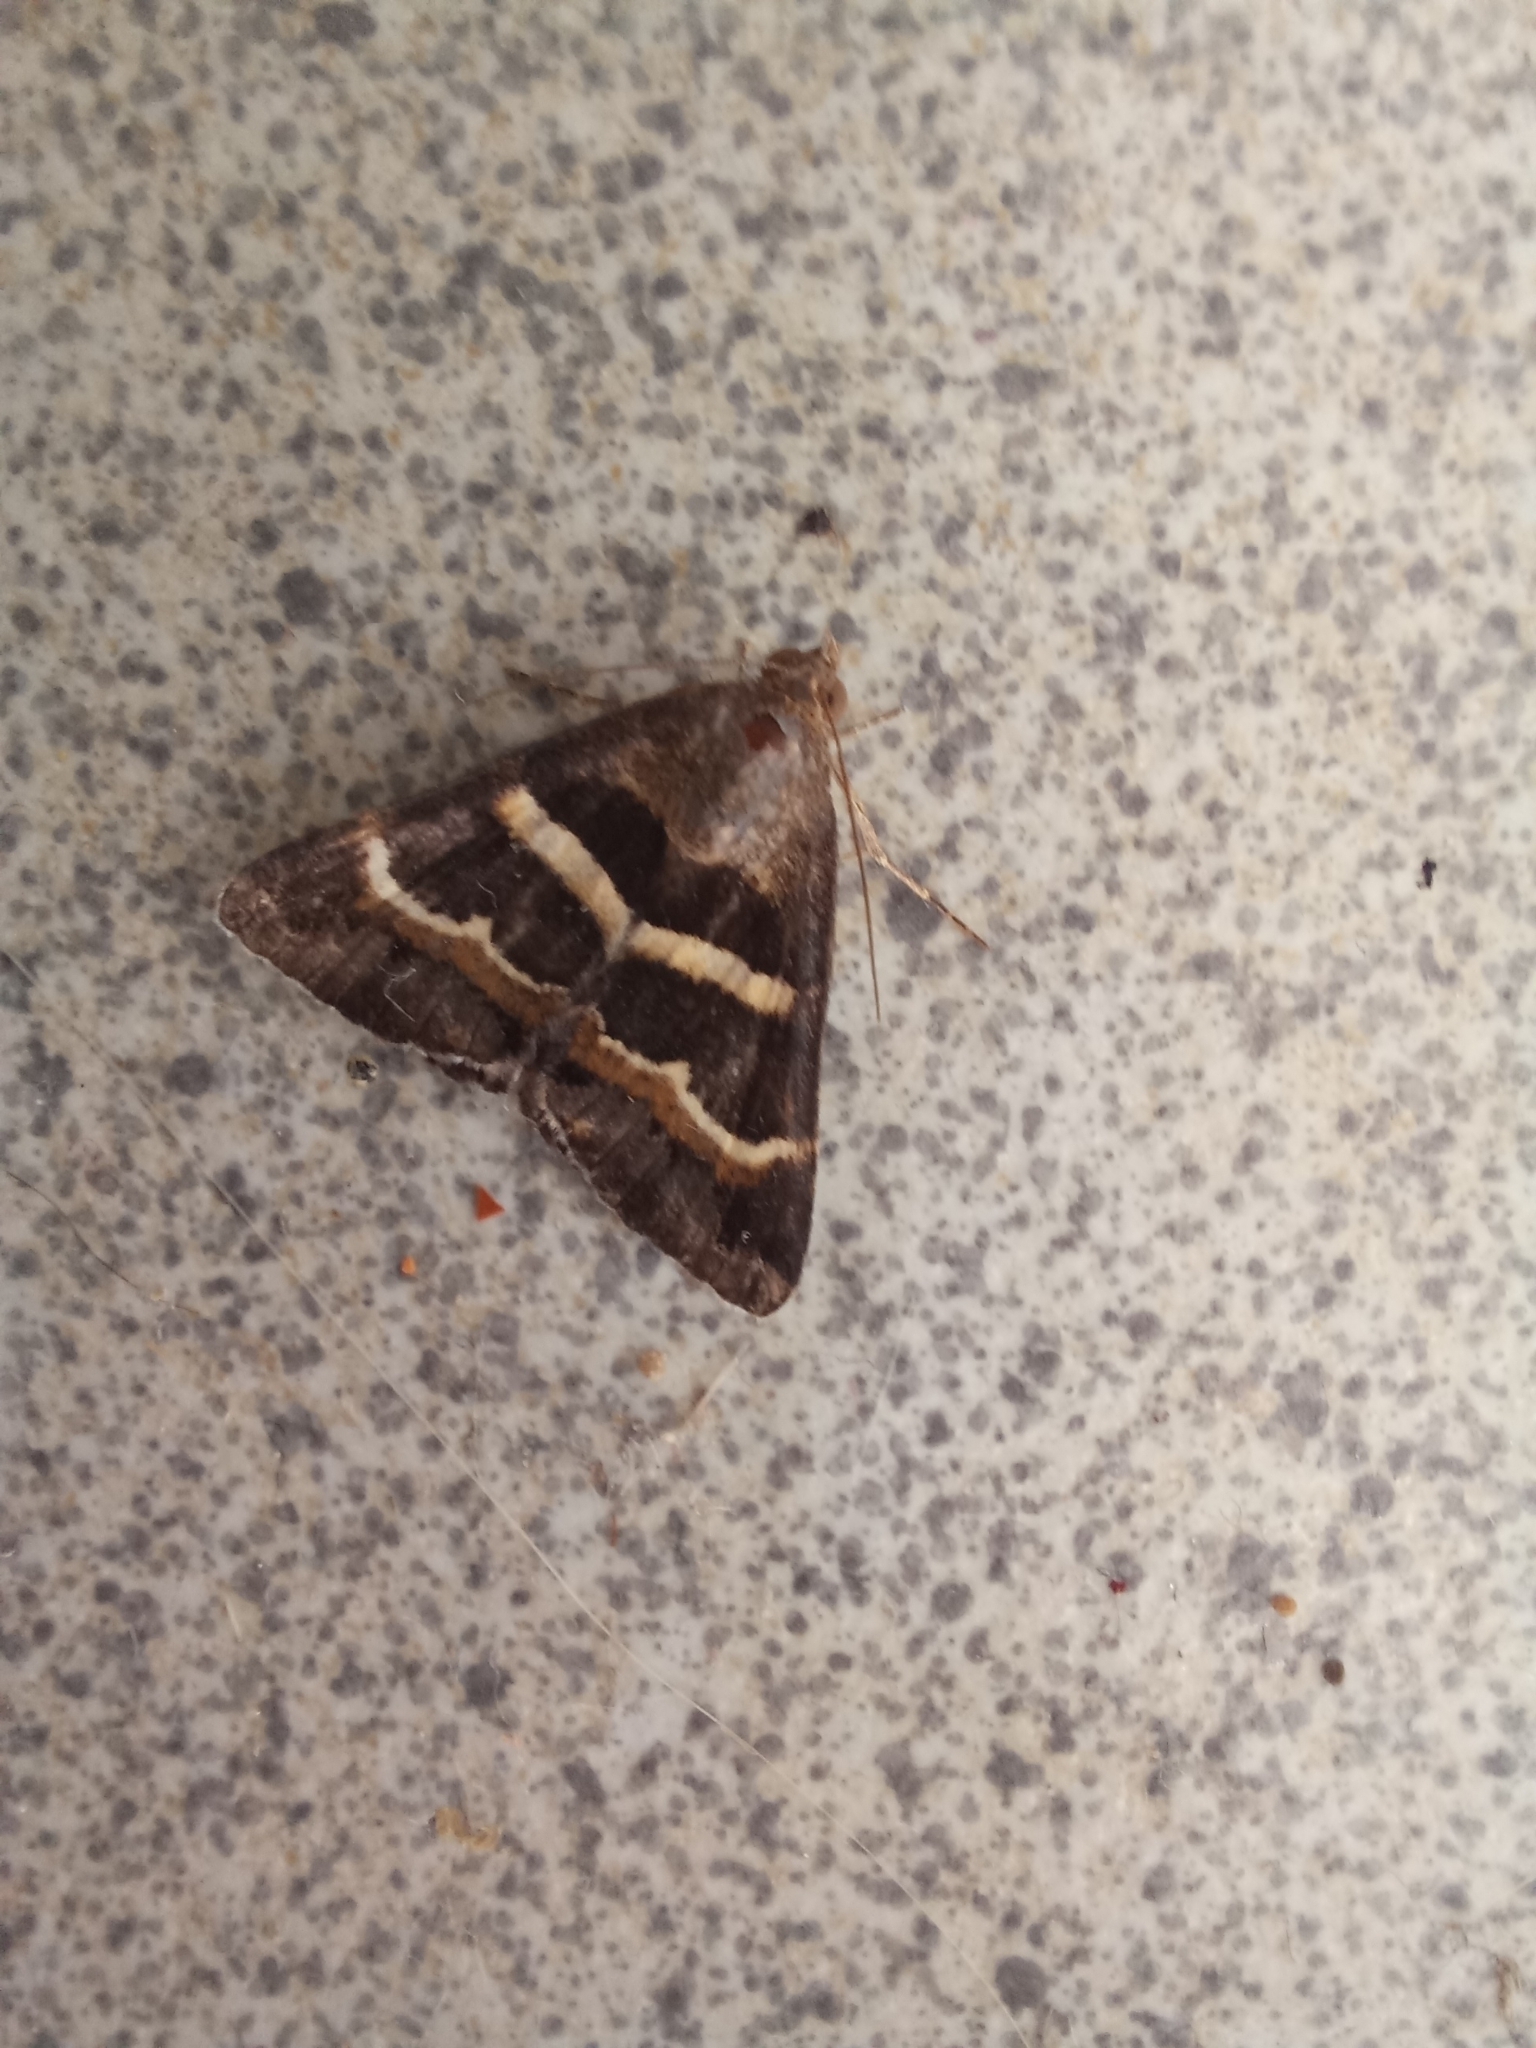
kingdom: Animalia
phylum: Arthropoda
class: Insecta
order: Lepidoptera
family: Erebidae
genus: Grammodes
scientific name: Grammodes stolida
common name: Geometrician
